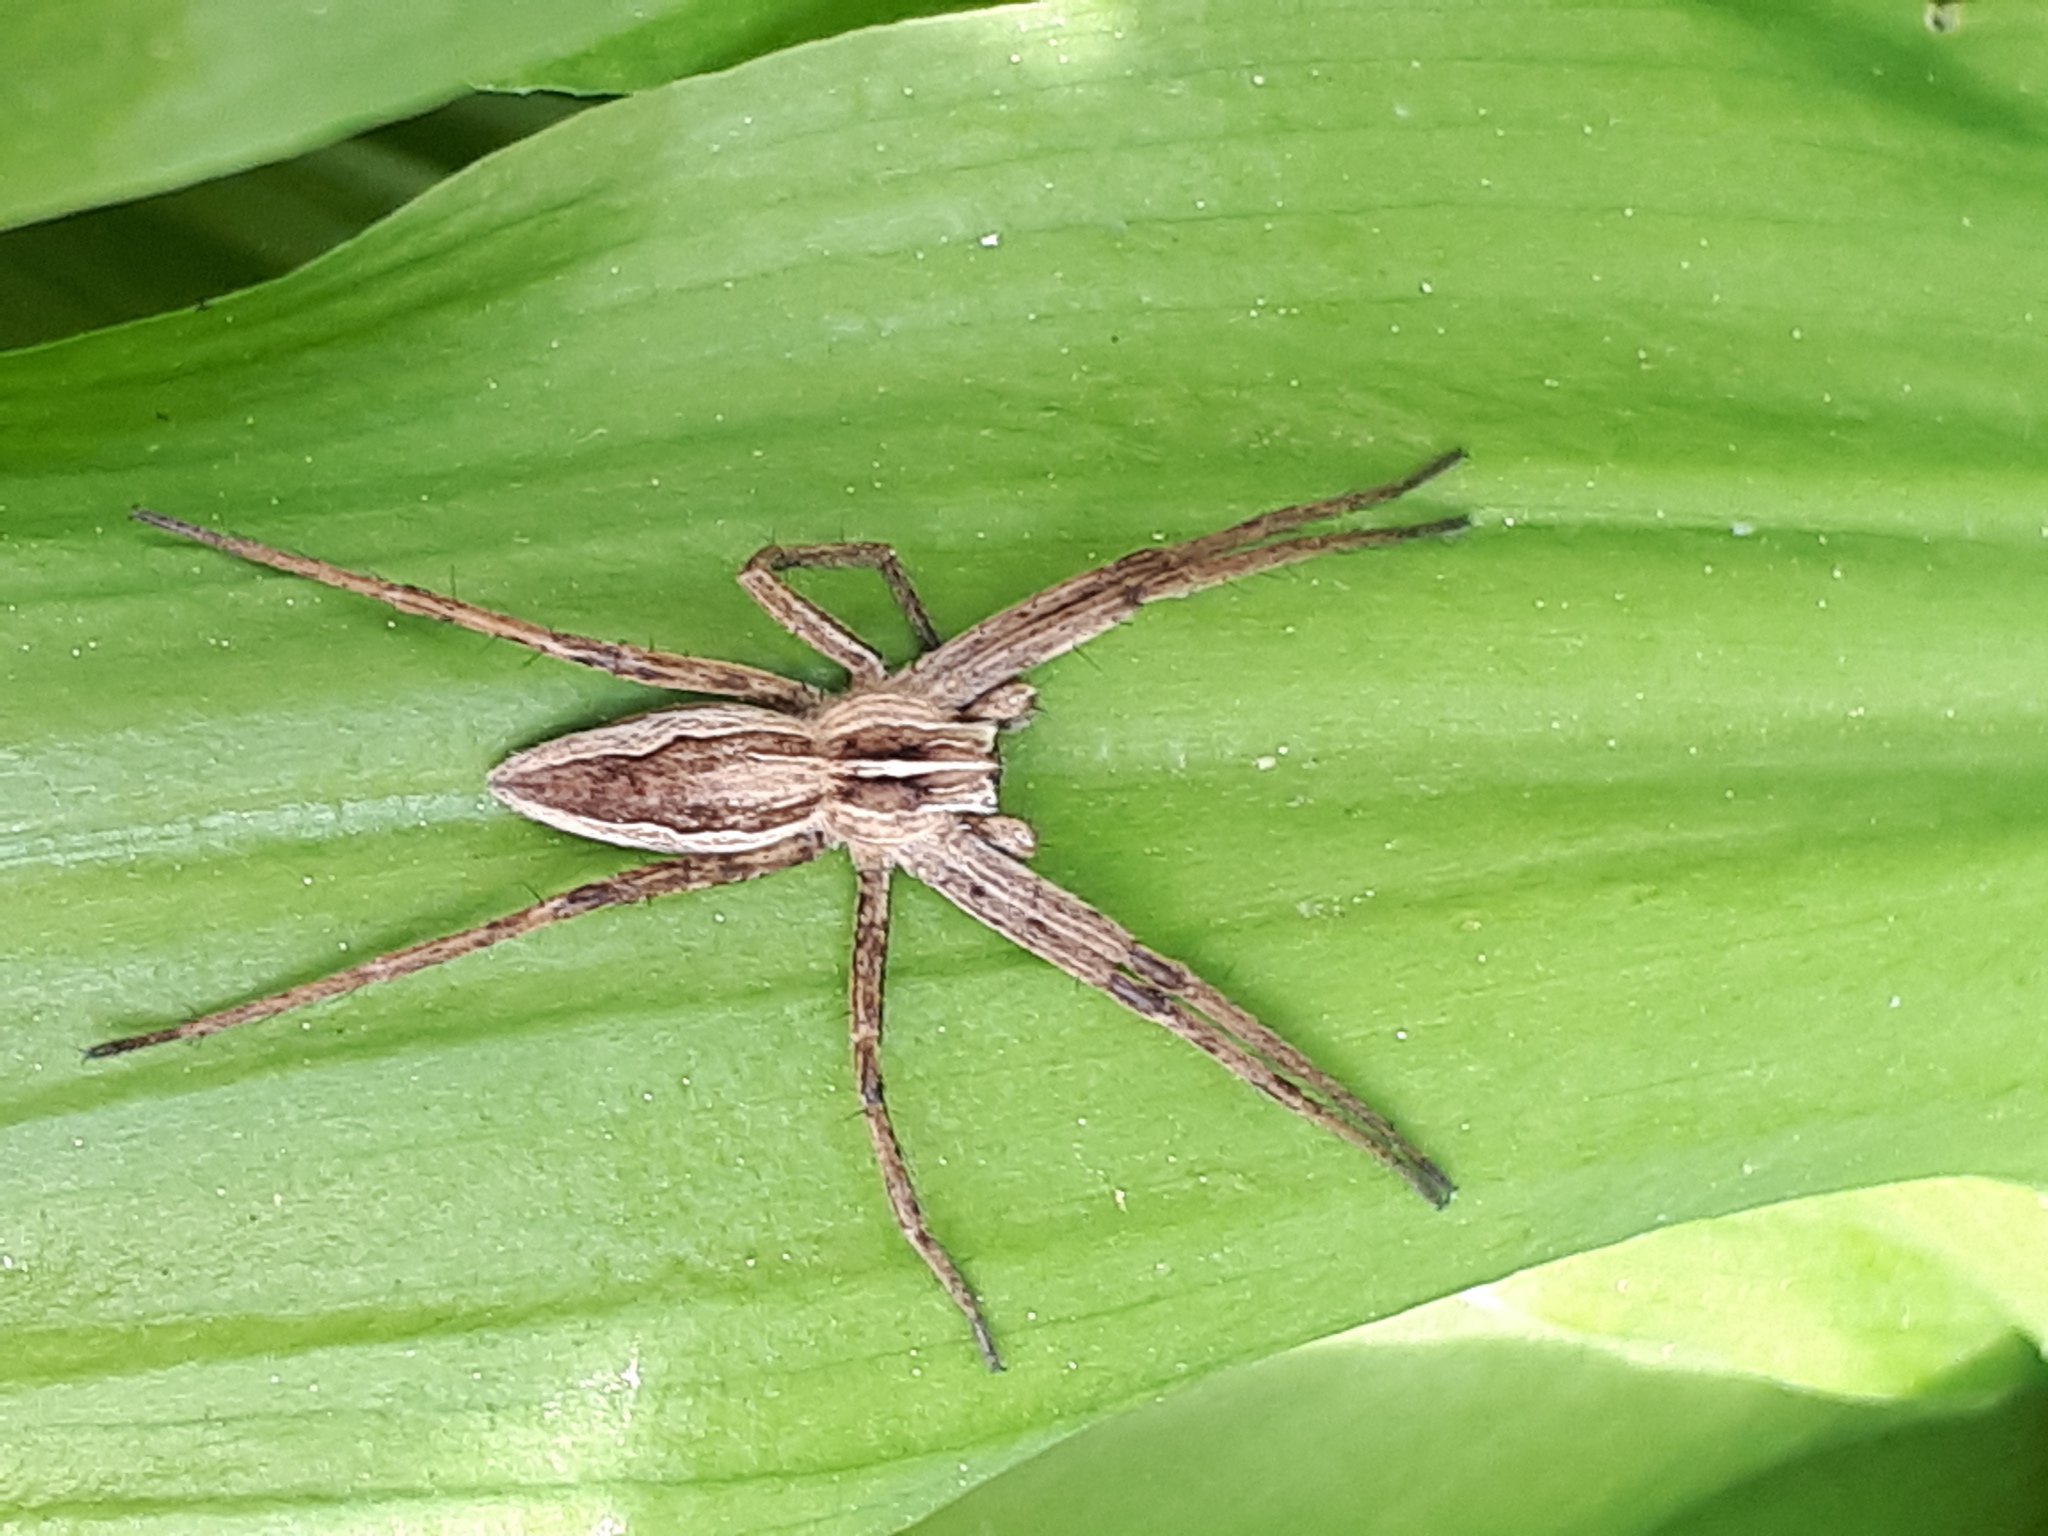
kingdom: Animalia
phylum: Arthropoda
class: Arachnida
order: Araneae
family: Pisauridae
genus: Pisaura
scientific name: Pisaura mirabilis
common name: Tent spider
